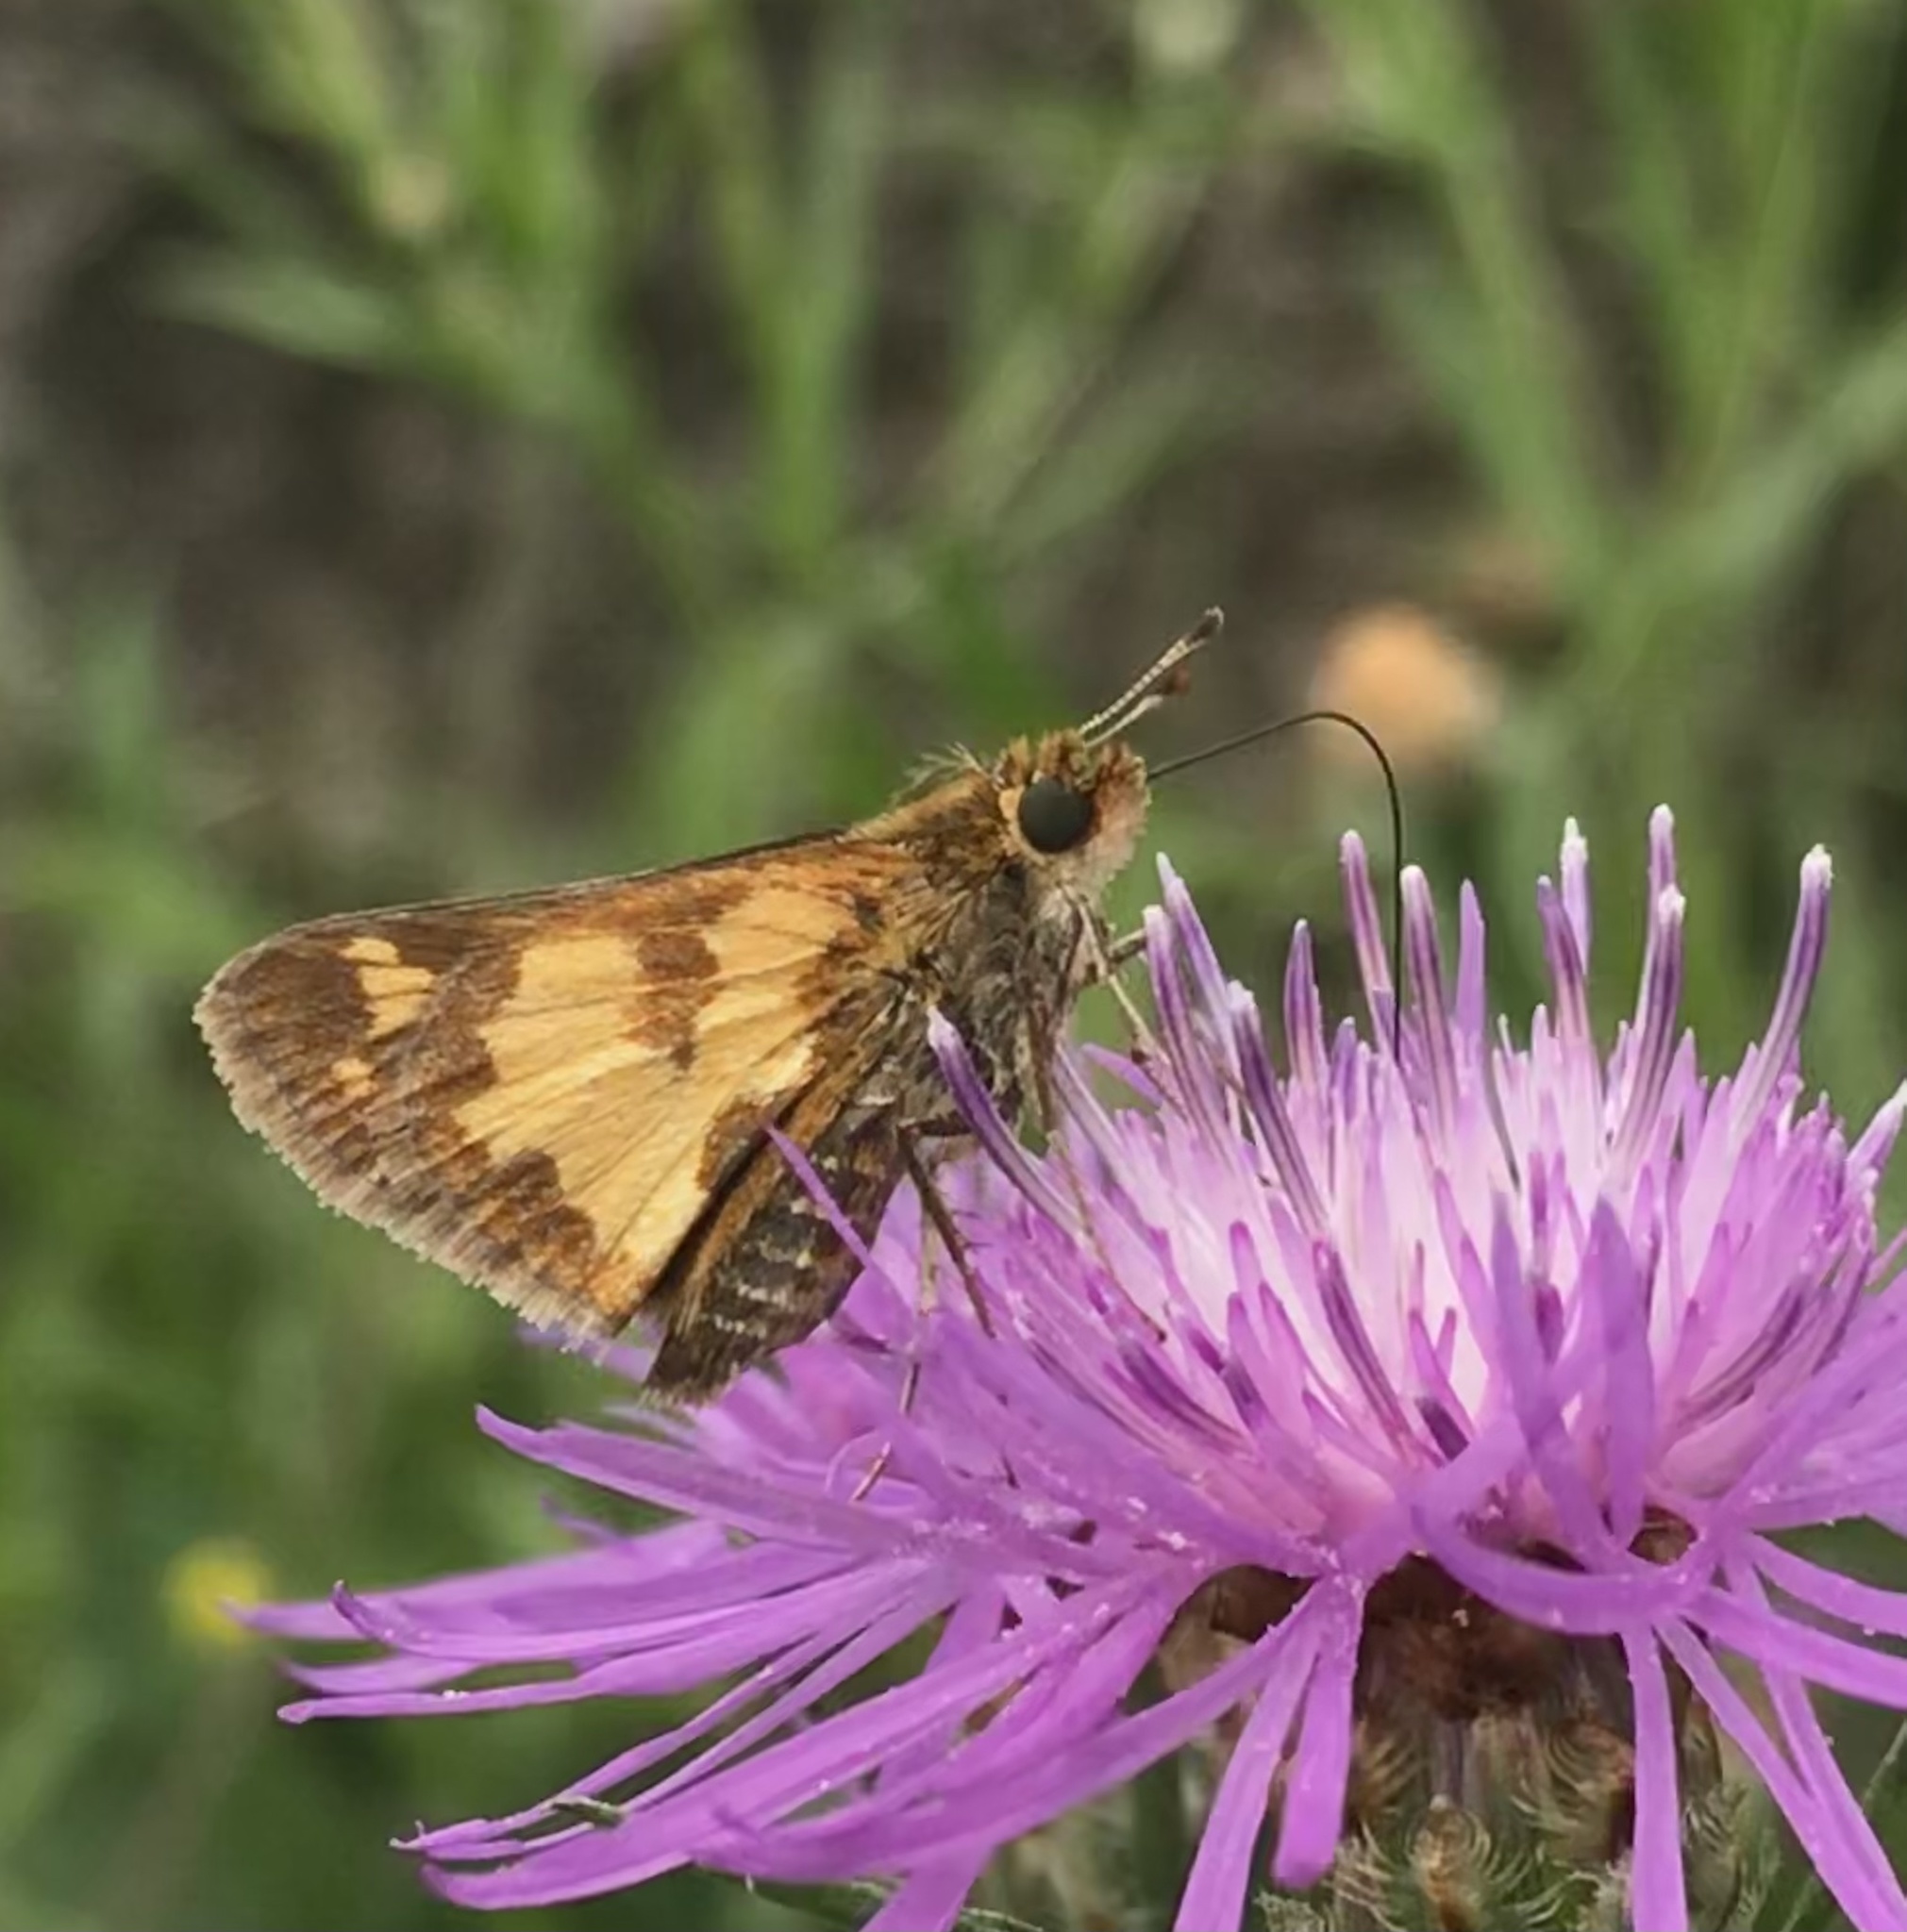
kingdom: Animalia
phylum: Arthropoda
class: Insecta
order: Lepidoptera
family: Hesperiidae
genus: Polites
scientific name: Polites coras
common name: Peck's skipper
